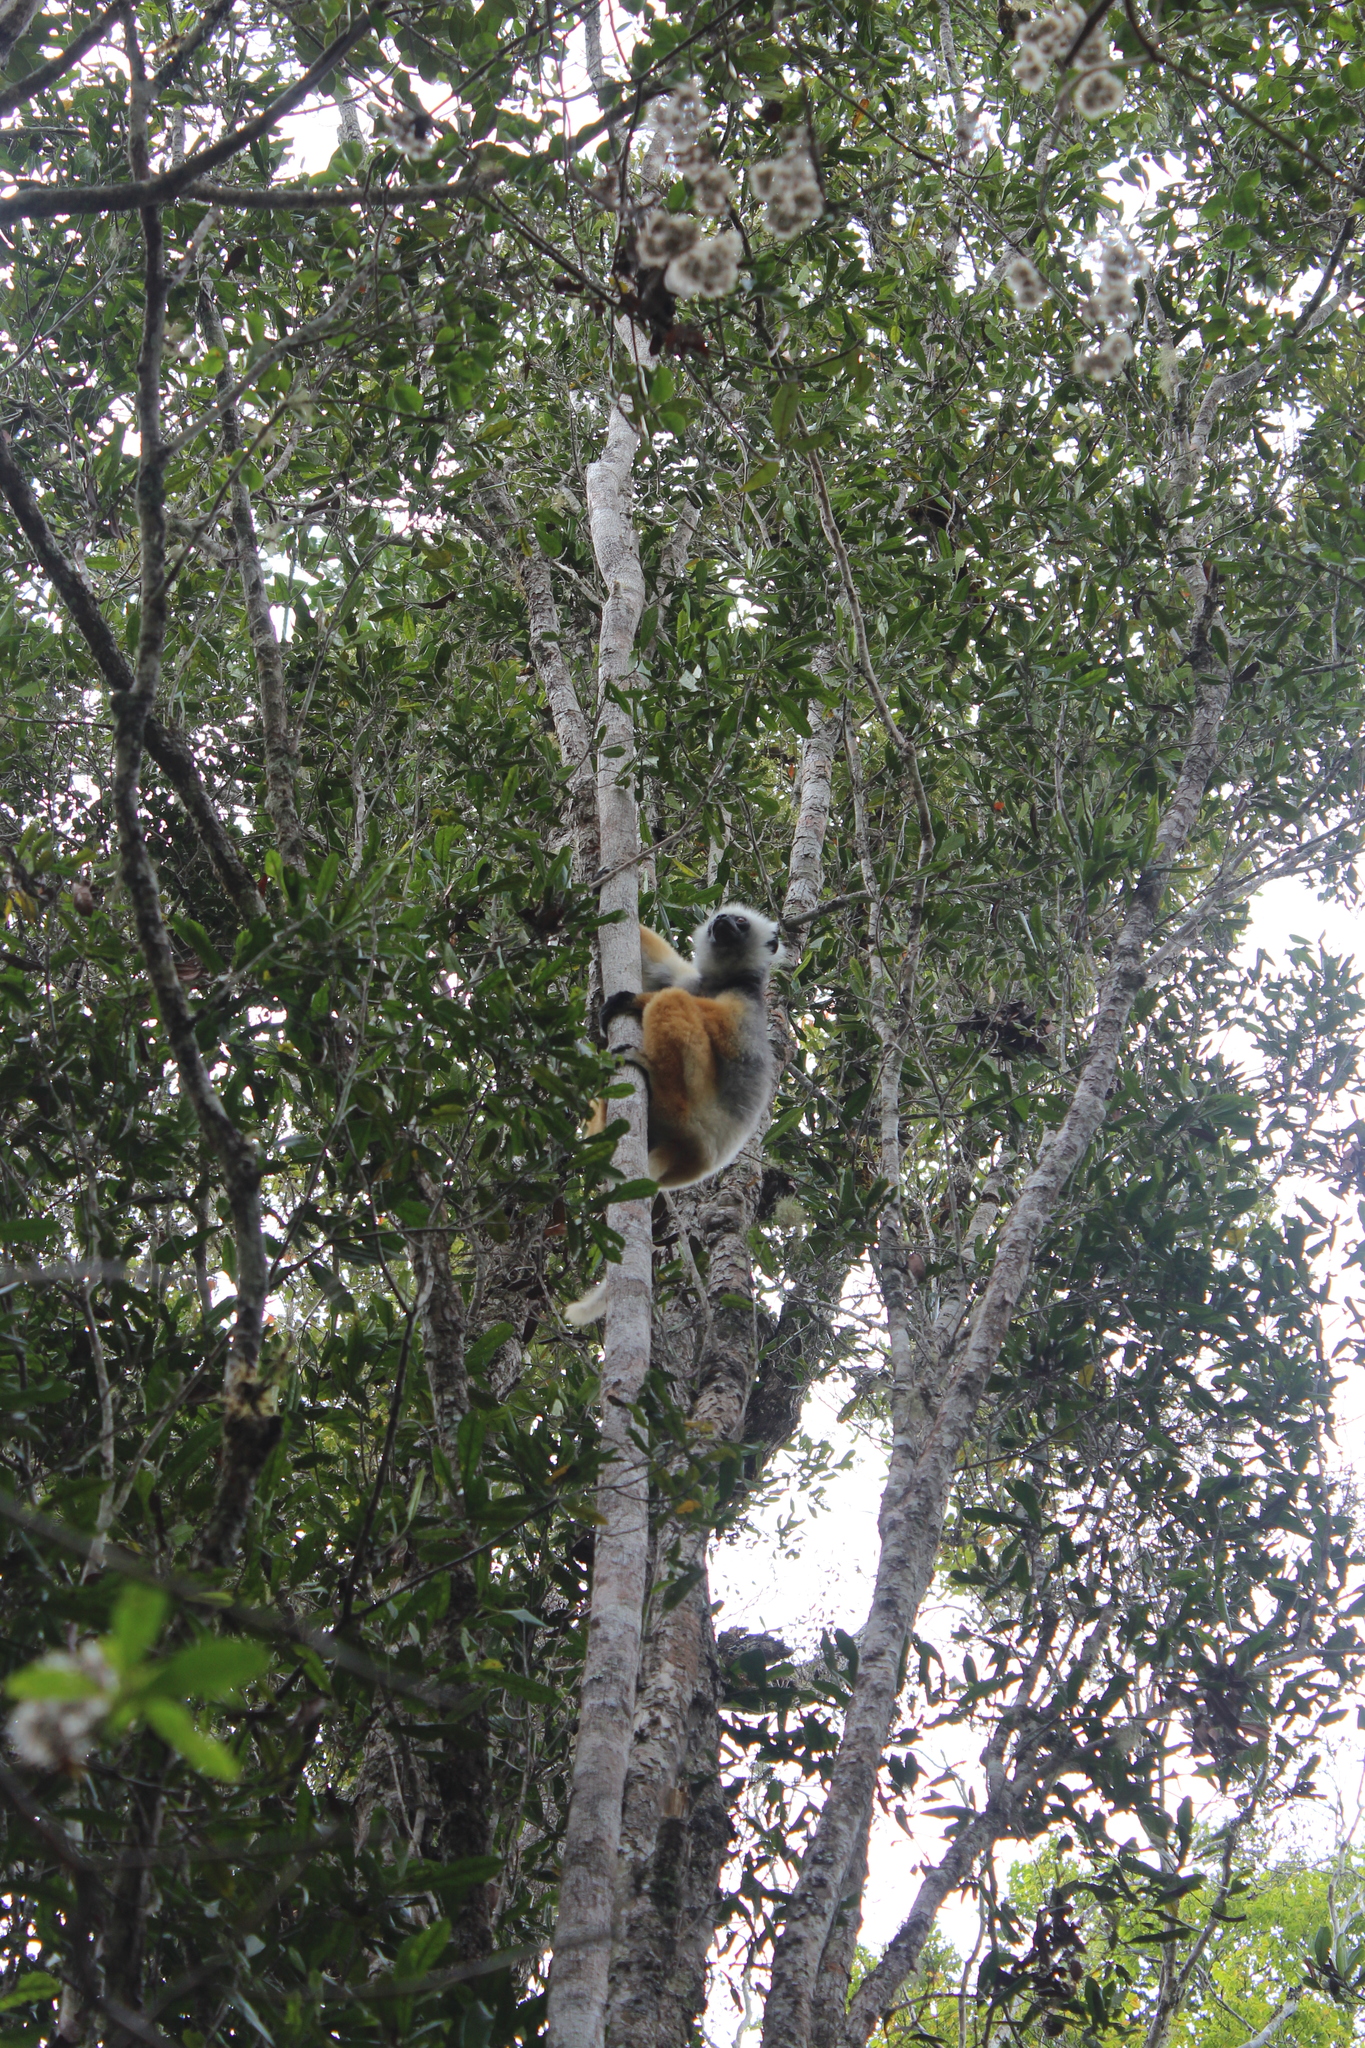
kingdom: Animalia
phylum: Chordata
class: Mammalia
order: Primates
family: Indriidae
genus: Propithecus
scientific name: Propithecus diadema
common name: Diademed sifaka
